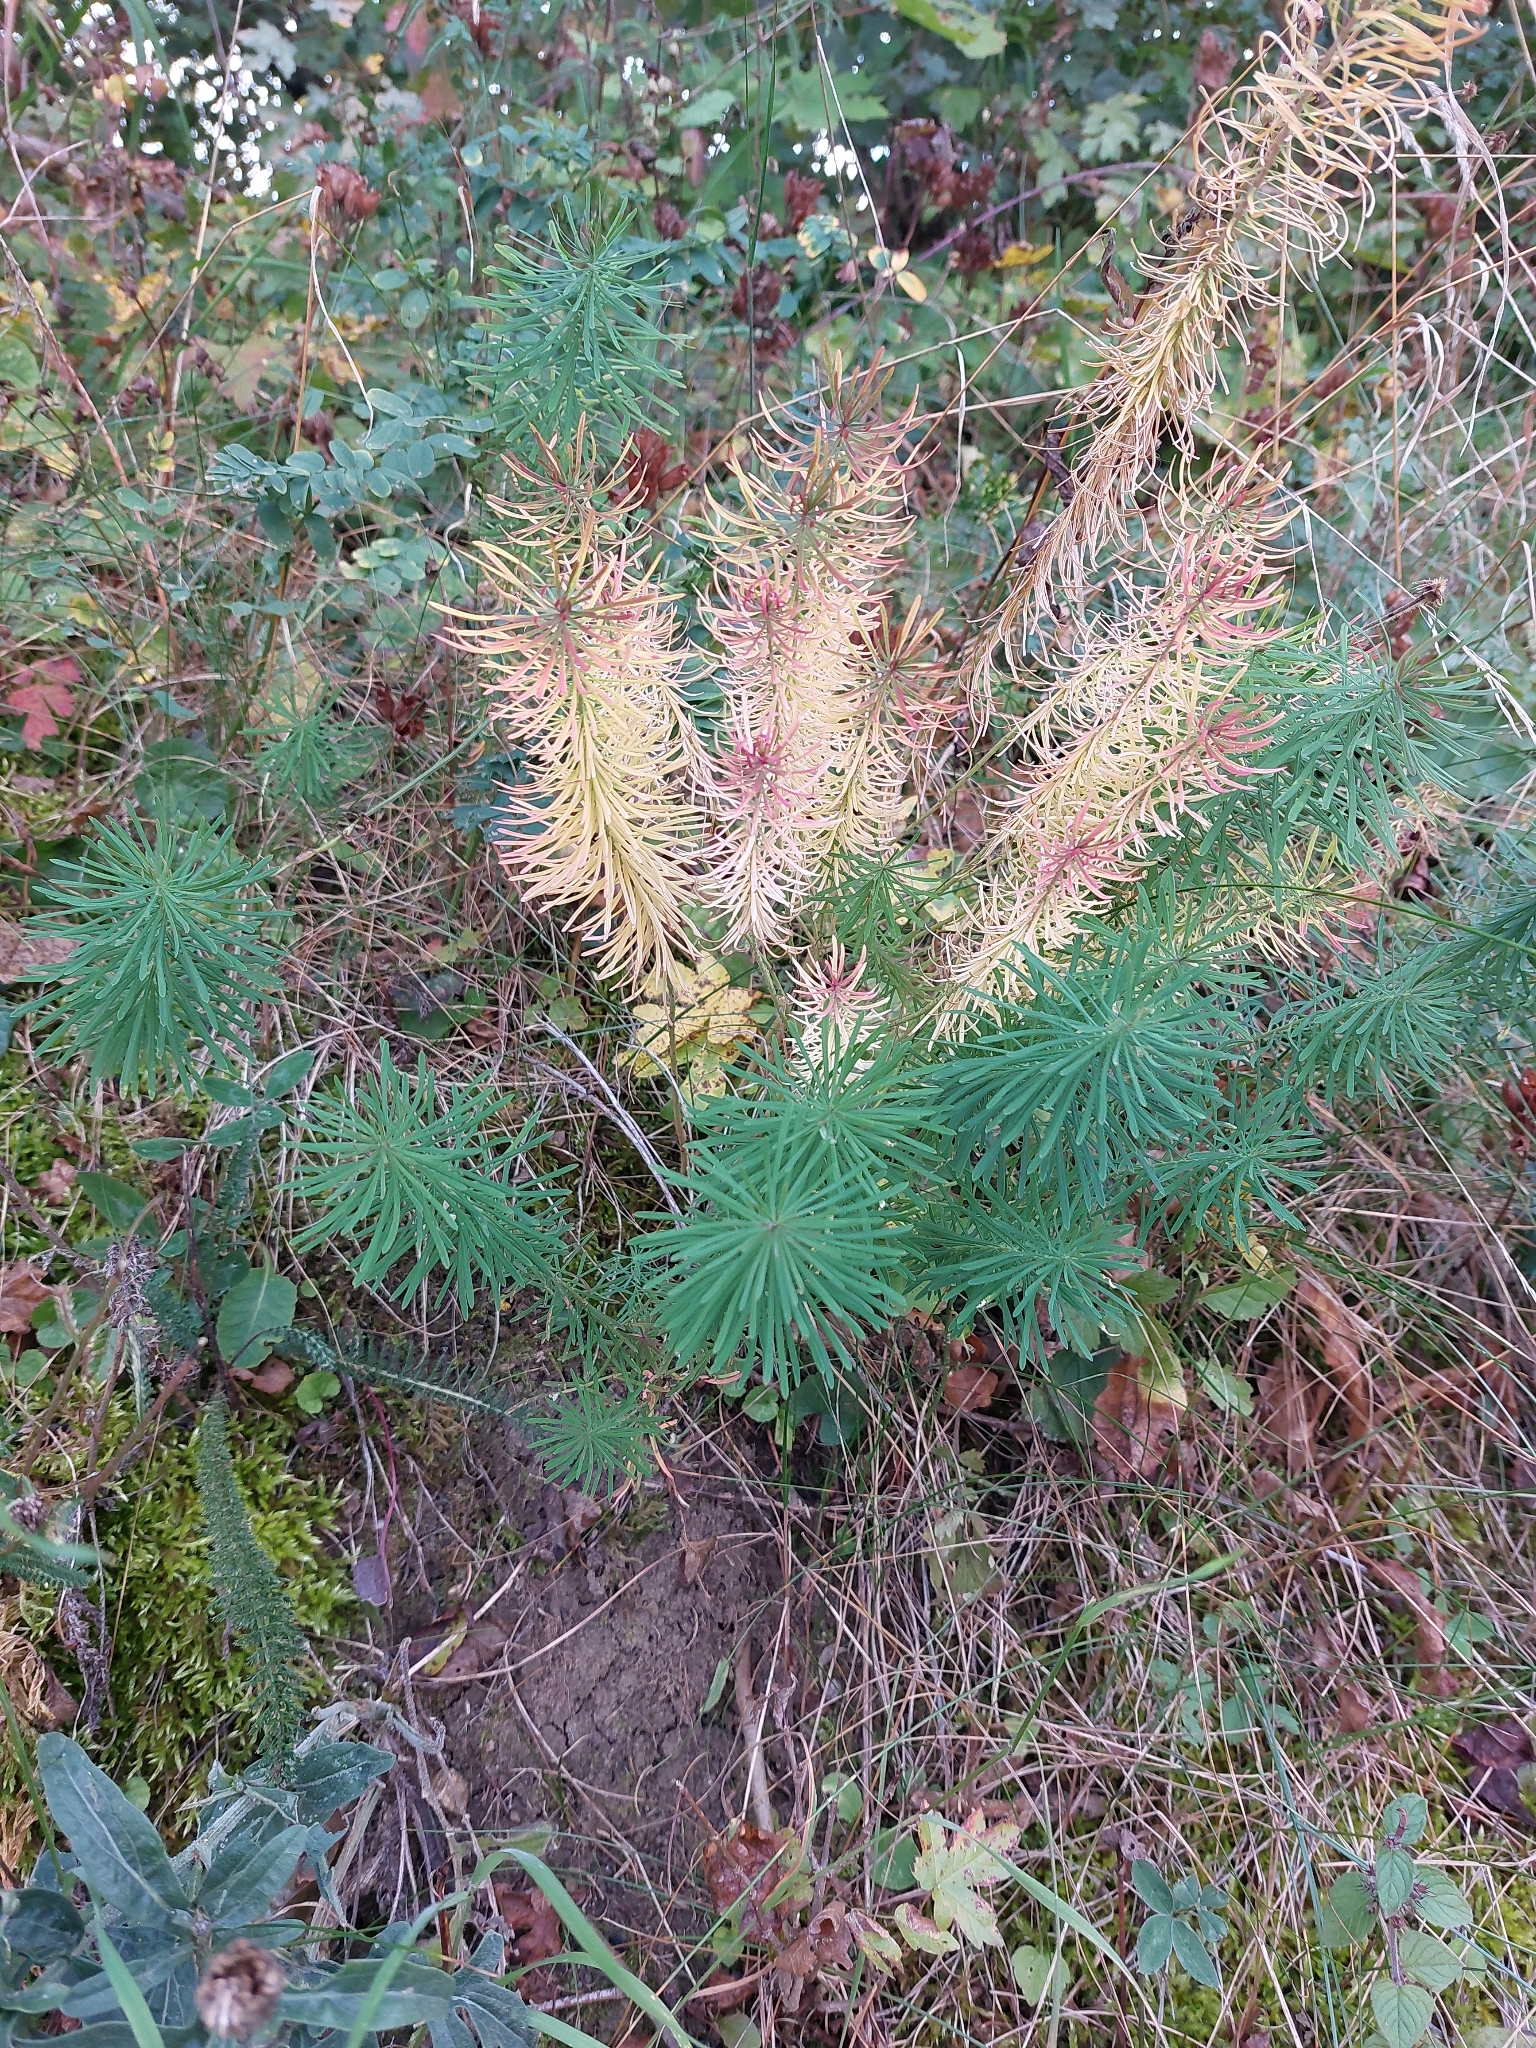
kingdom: Plantae
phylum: Tracheophyta
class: Magnoliopsida
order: Malpighiales
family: Euphorbiaceae
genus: Euphorbia
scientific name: Euphorbia cyparissias
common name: Cypress spurge
